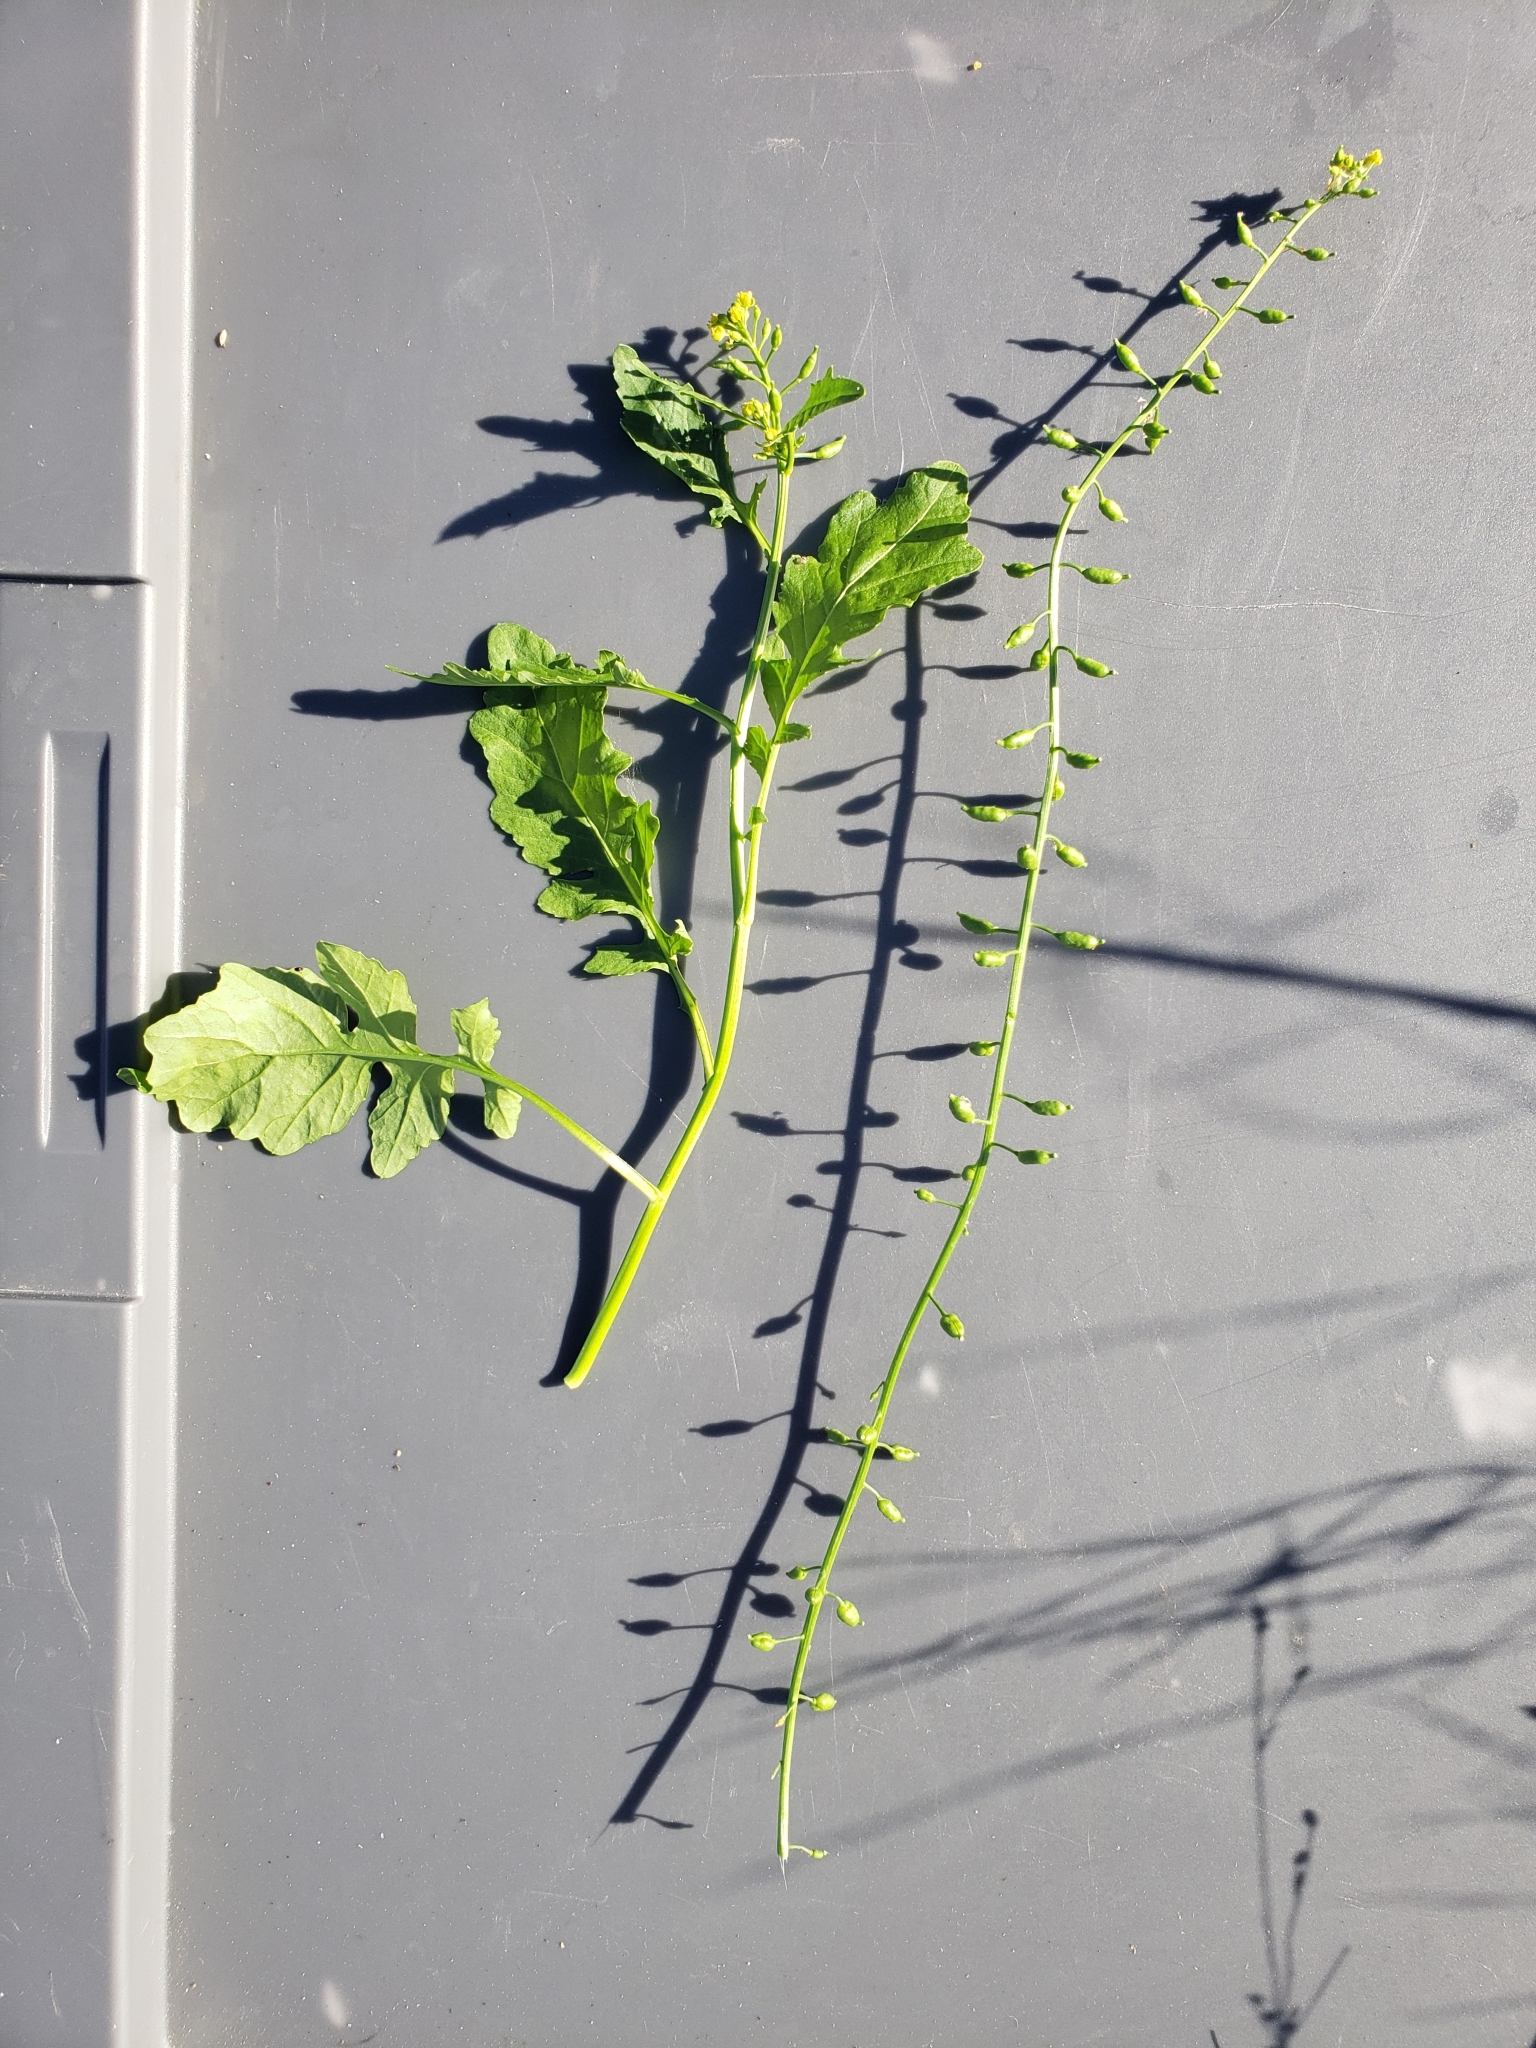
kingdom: Plantae
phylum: Tracheophyta
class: Magnoliopsida
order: Brassicales
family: Brassicaceae
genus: Rorippa
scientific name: Rorippa sessiliflora
